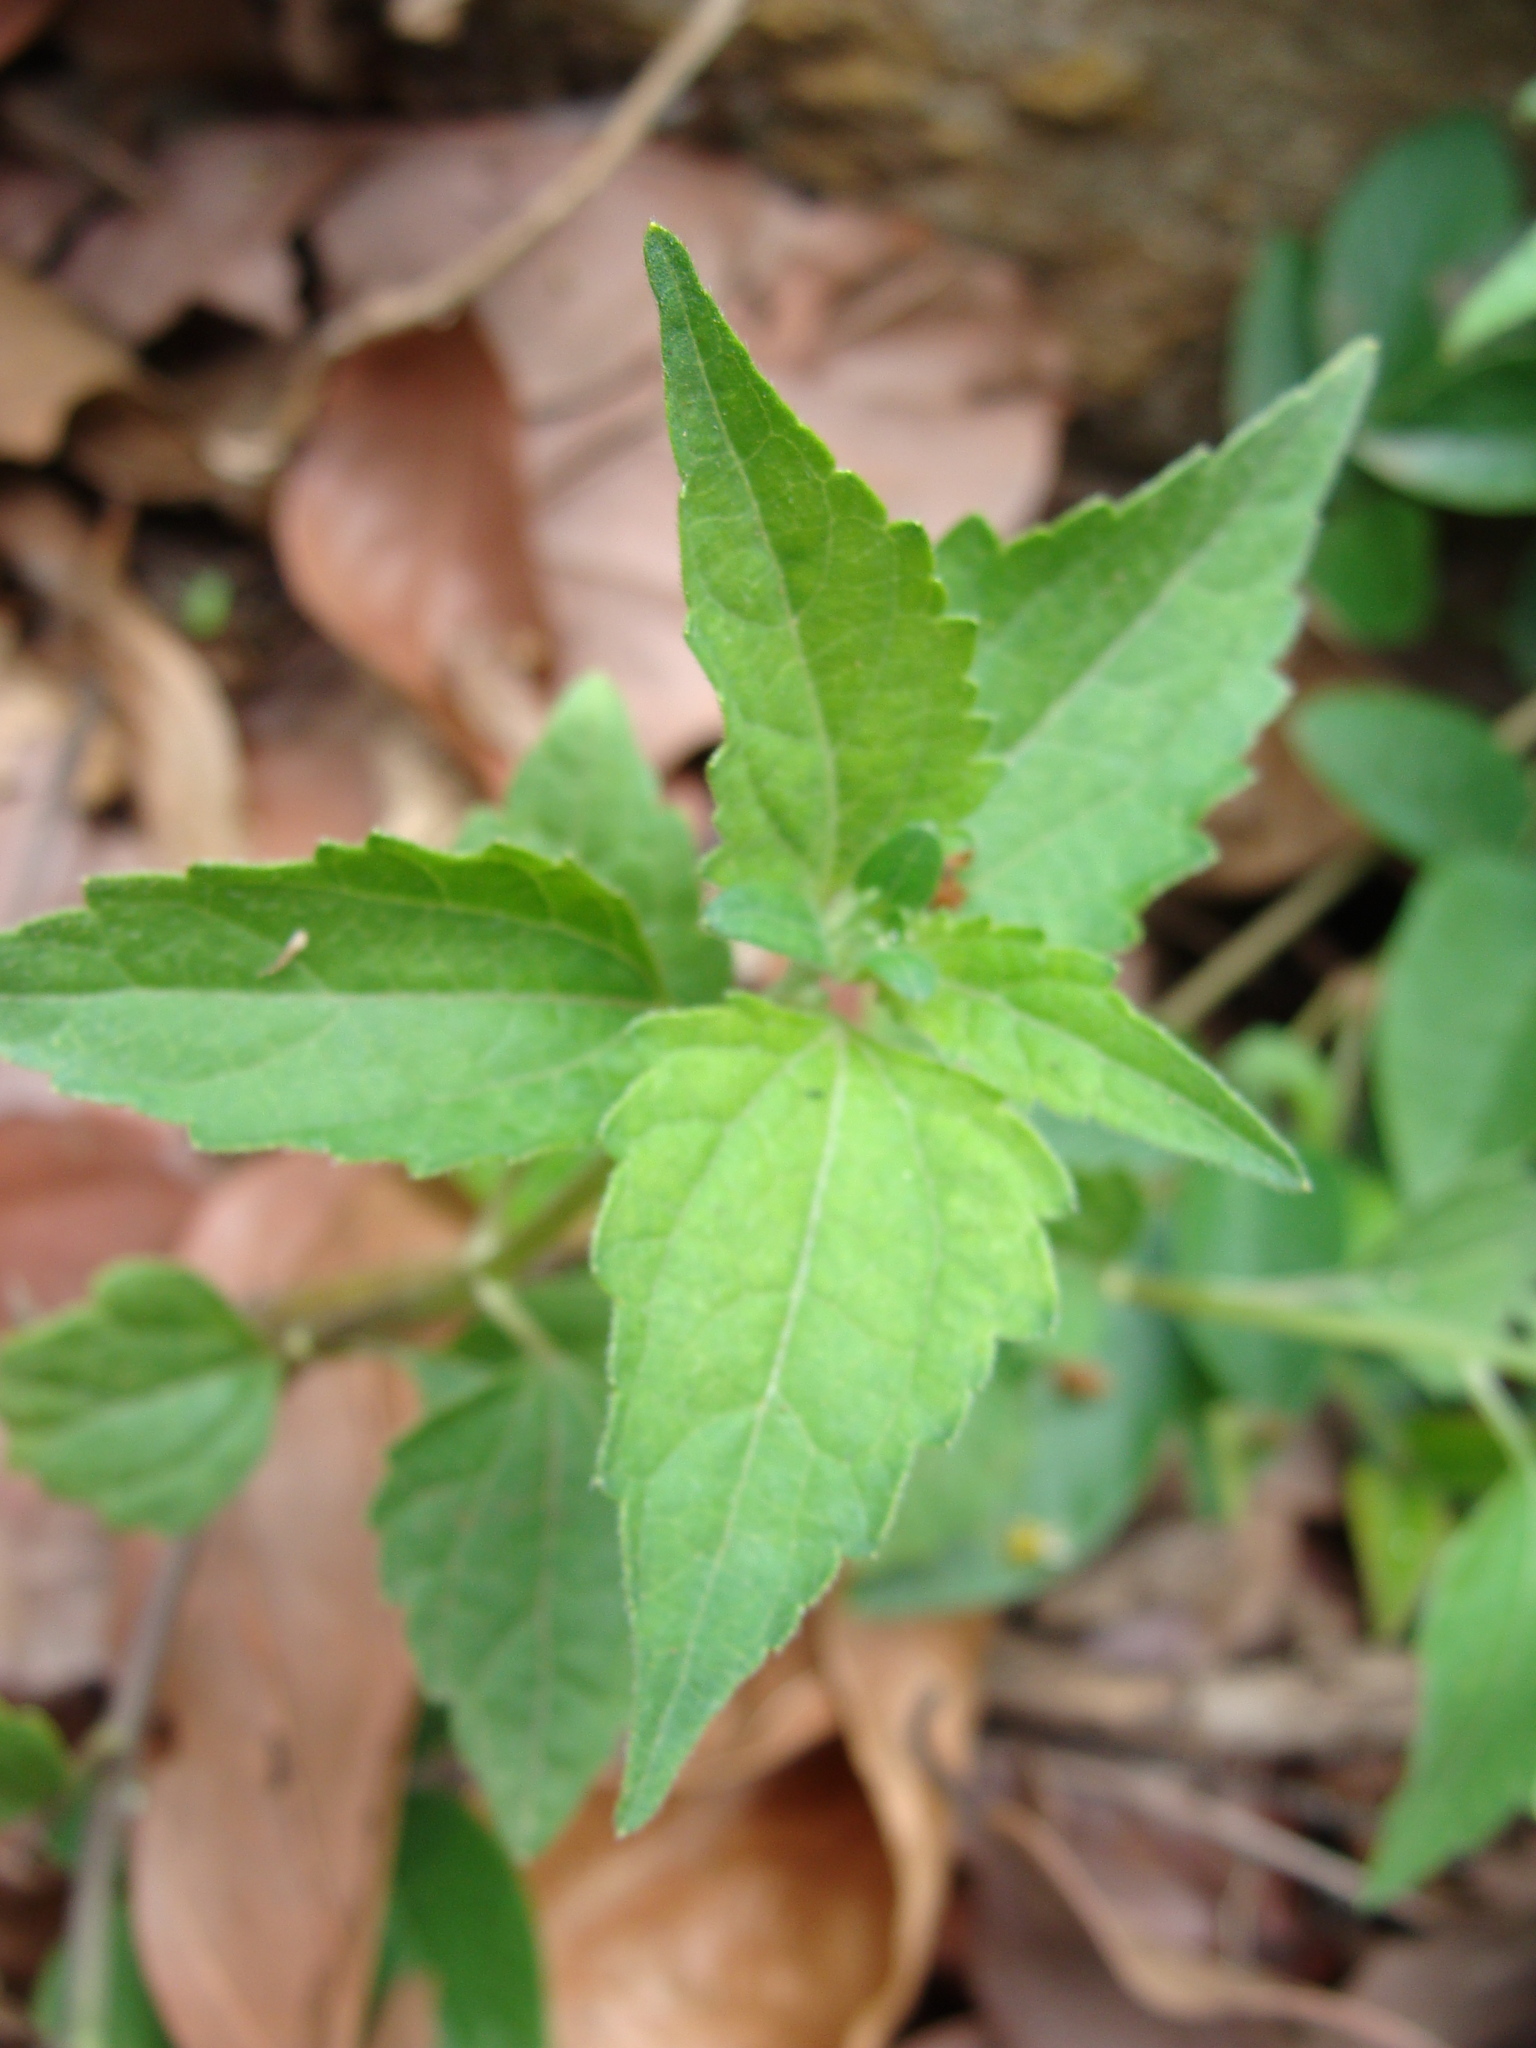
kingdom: Plantae
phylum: Tracheophyta
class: Magnoliopsida
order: Asterales
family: Asteraceae
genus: Sclerocarpus
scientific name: Sclerocarpus divaricatus
